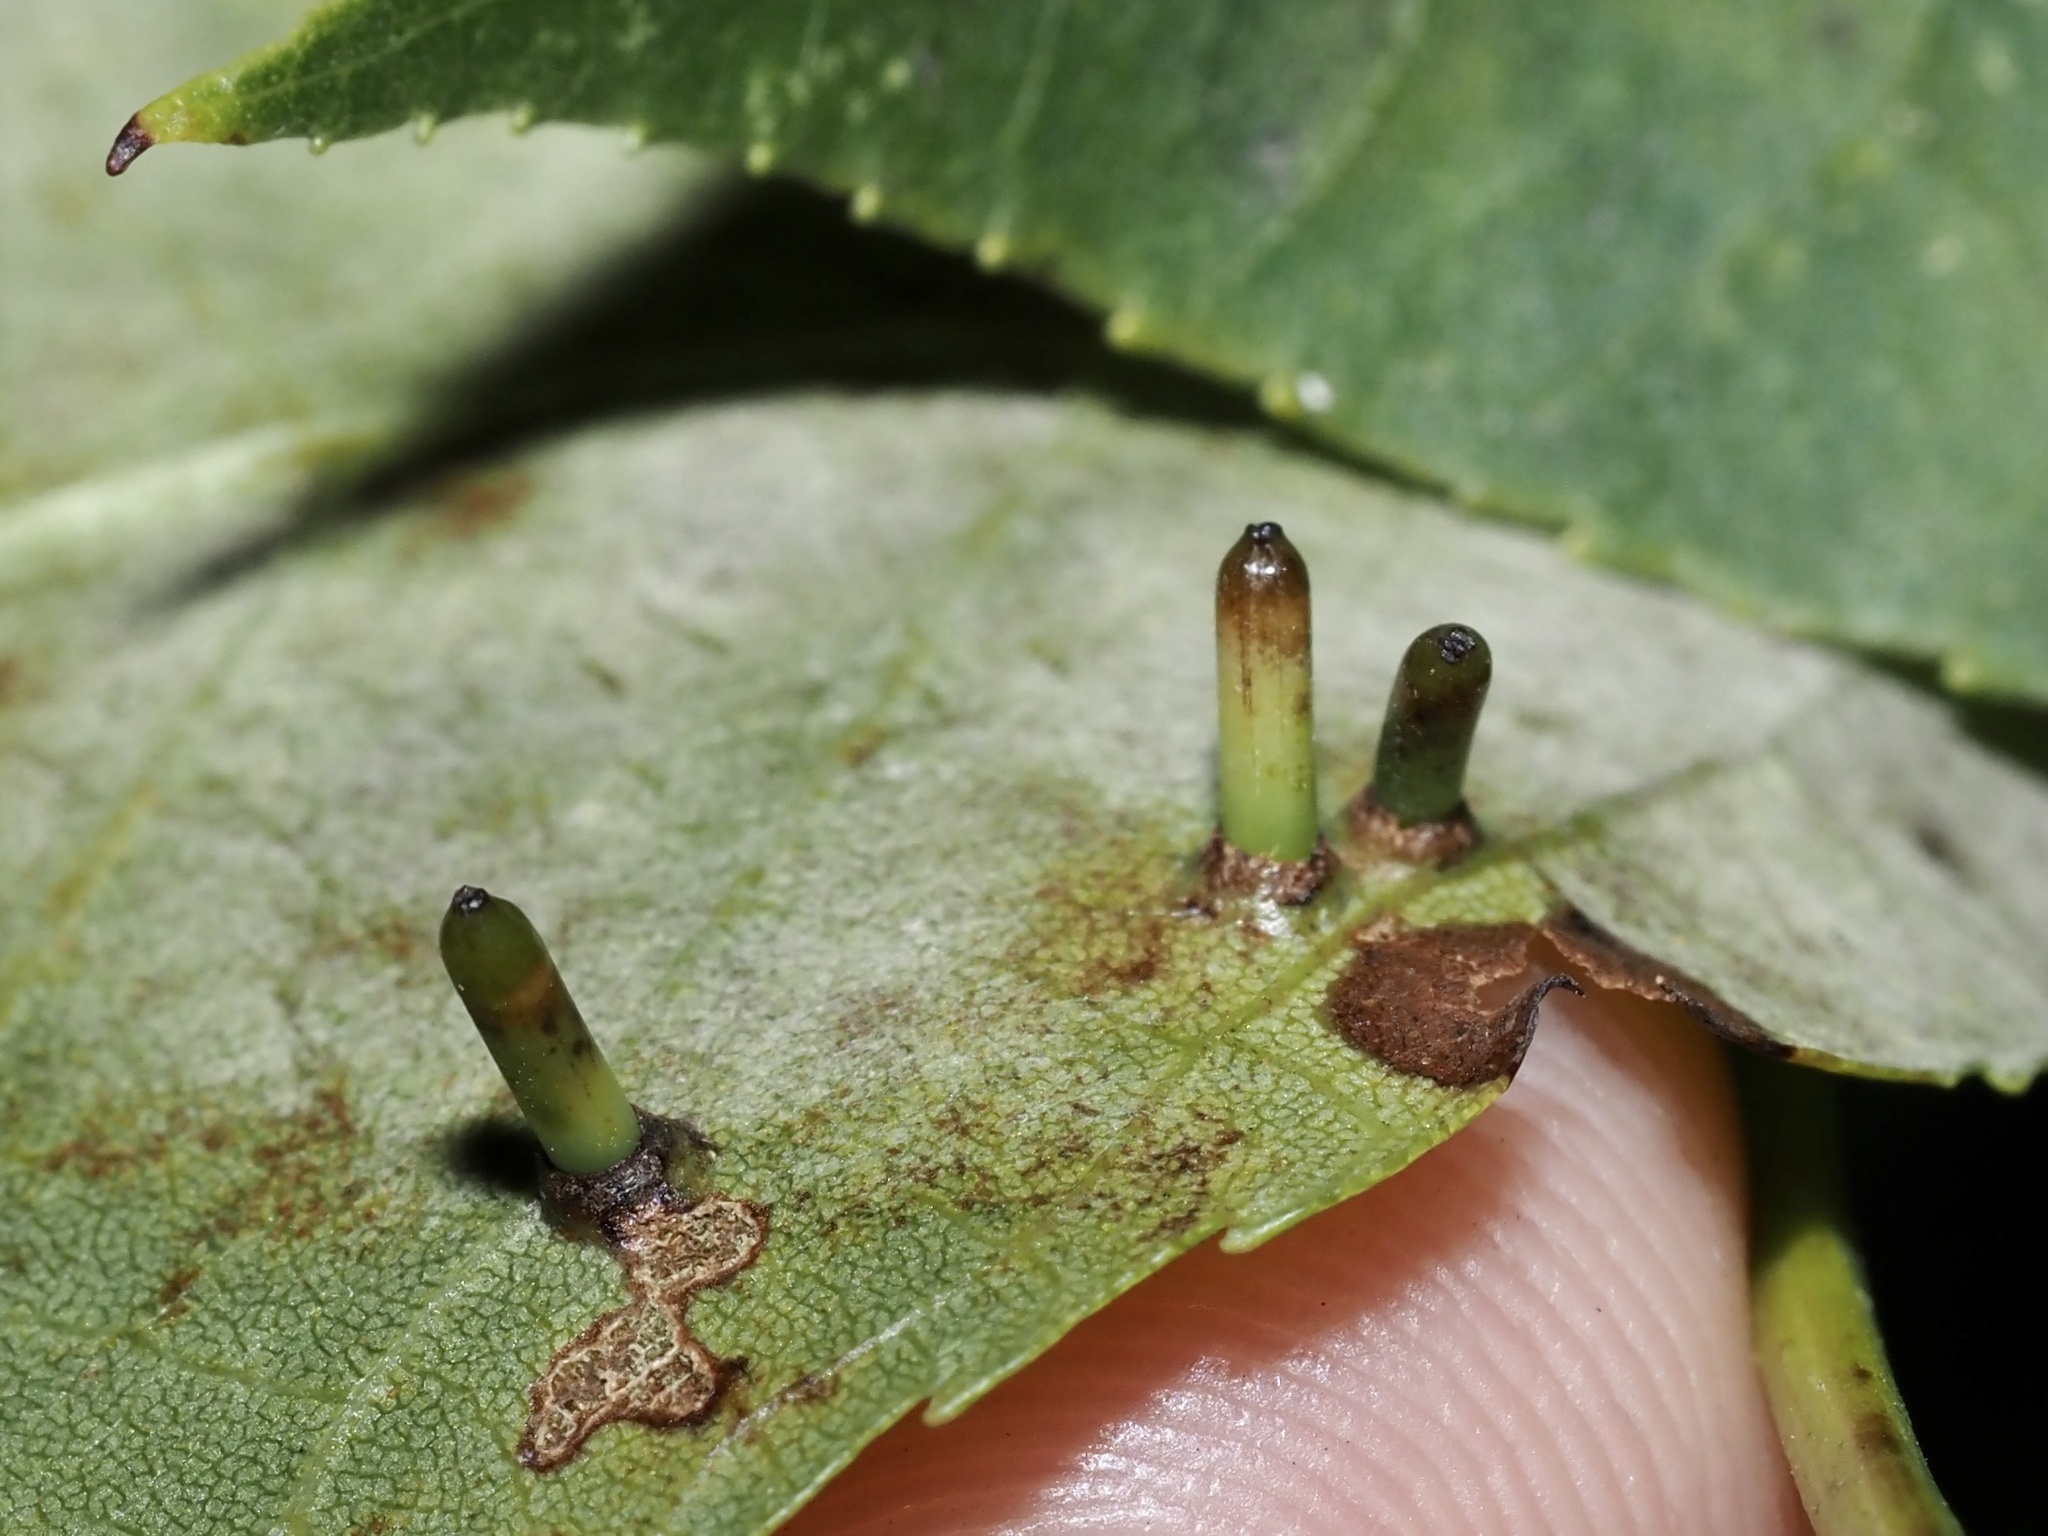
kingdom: Animalia
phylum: Arthropoda
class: Insecta
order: Diptera
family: Cecidomyiidae
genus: Caryomyia
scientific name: Caryomyia tubicola
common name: Hickory bullet gall midge
